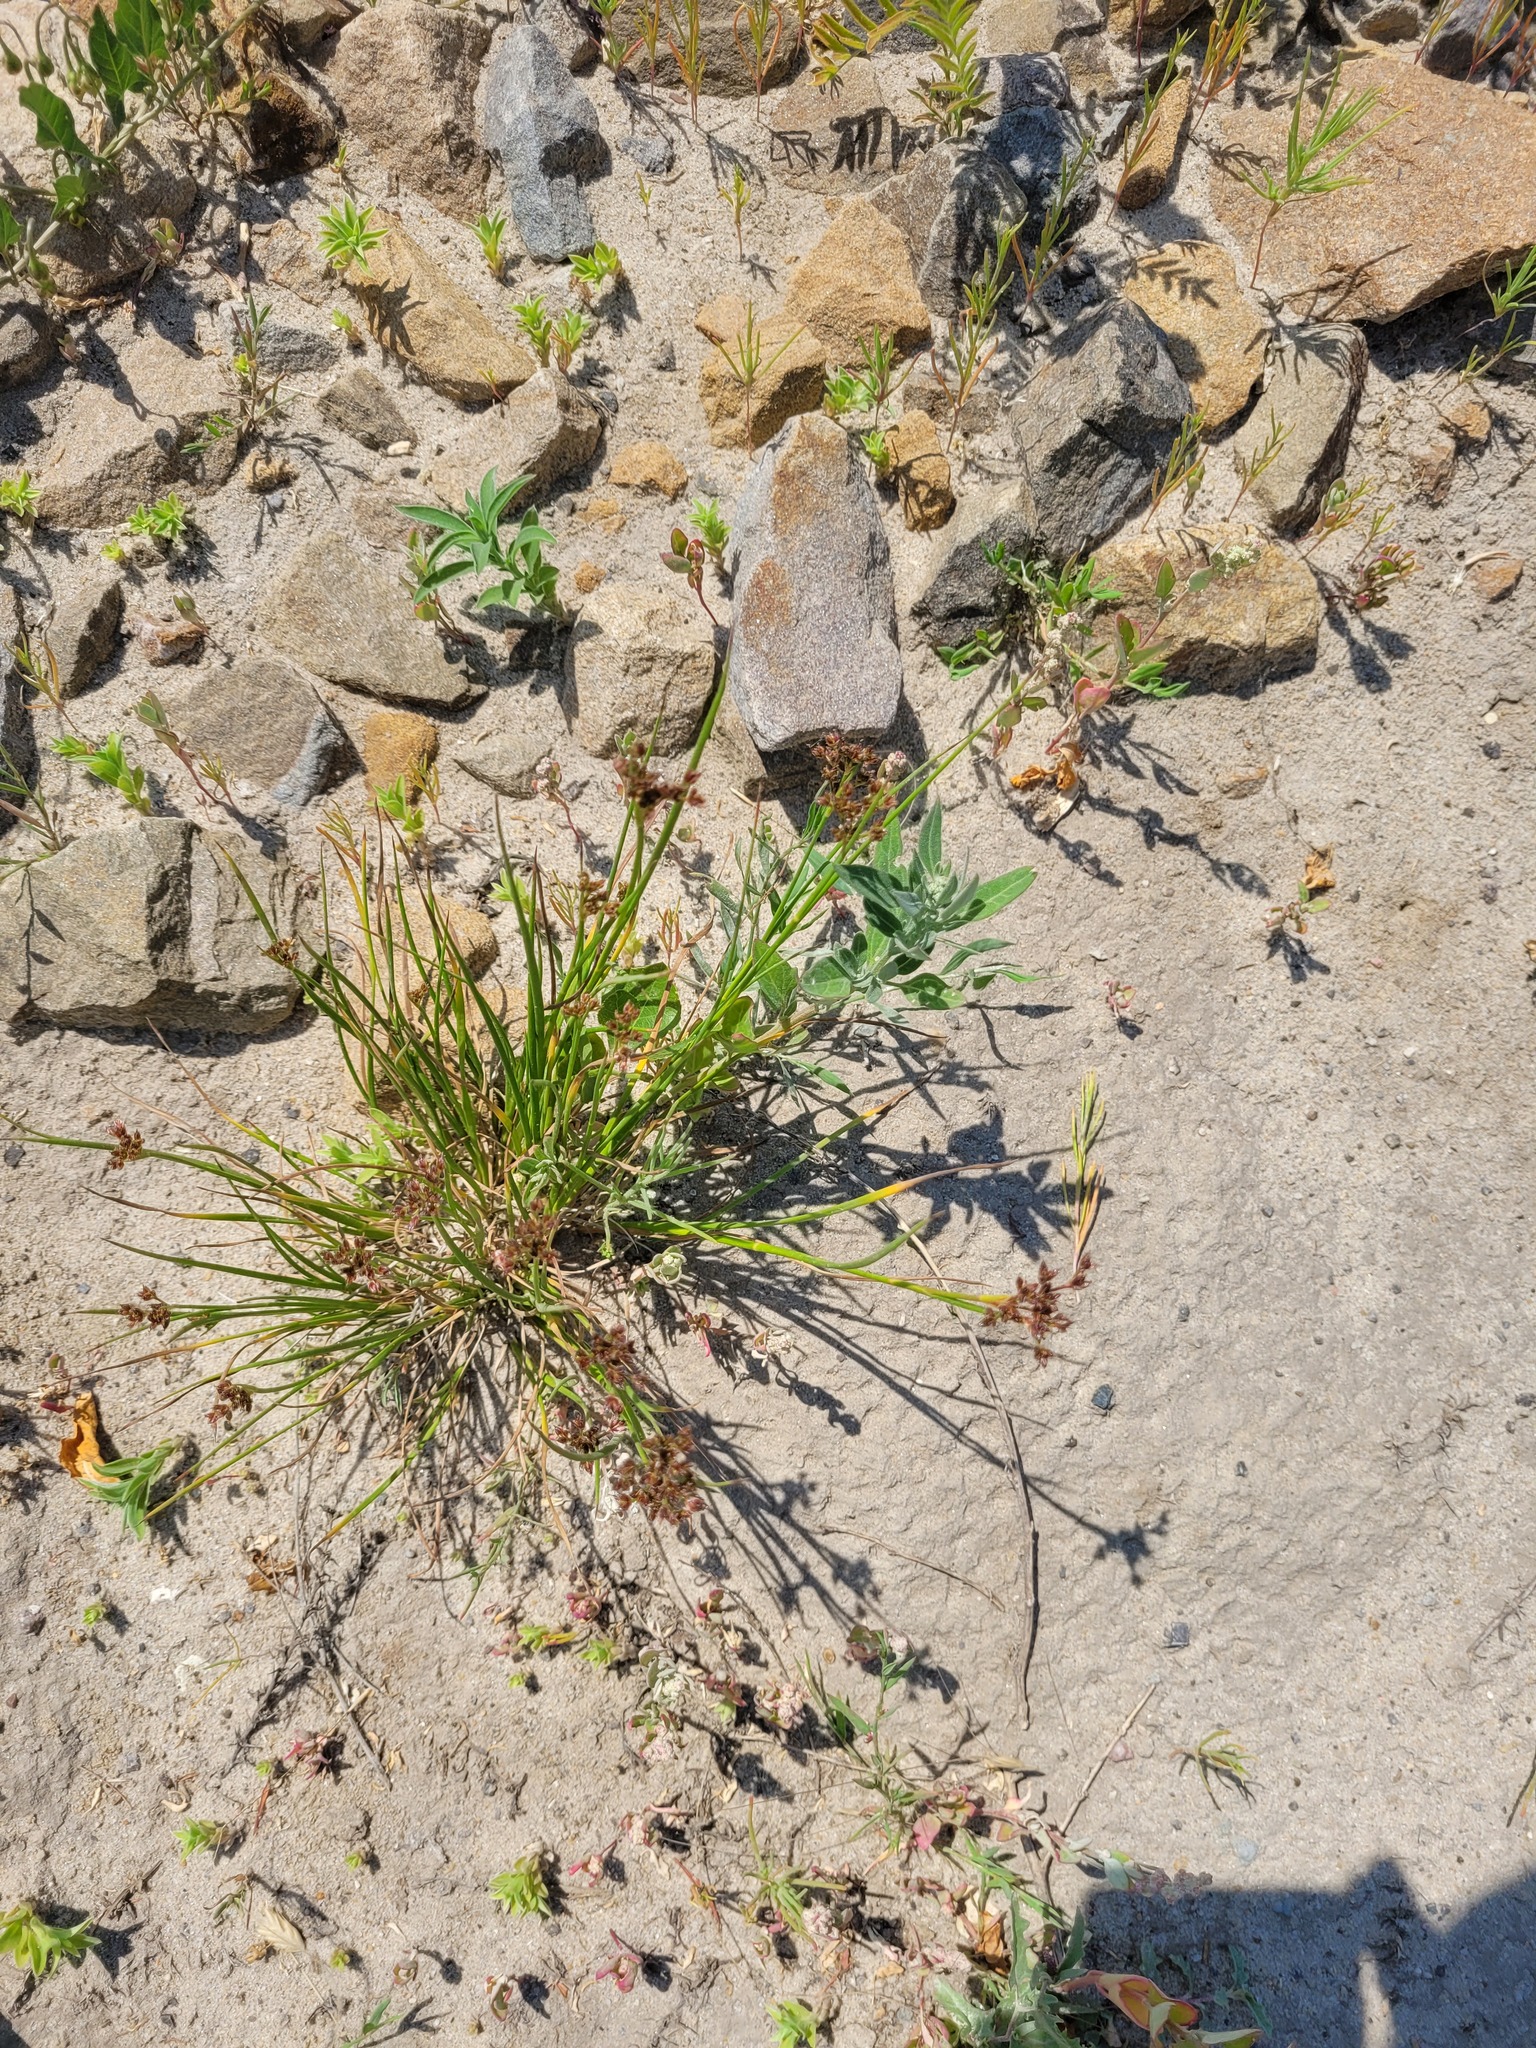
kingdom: Plantae
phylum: Tracheophyta
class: Liliopsida
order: Poales
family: Juncaceae
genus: Juncus
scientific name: Juncus articulatus
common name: Jointed rush
